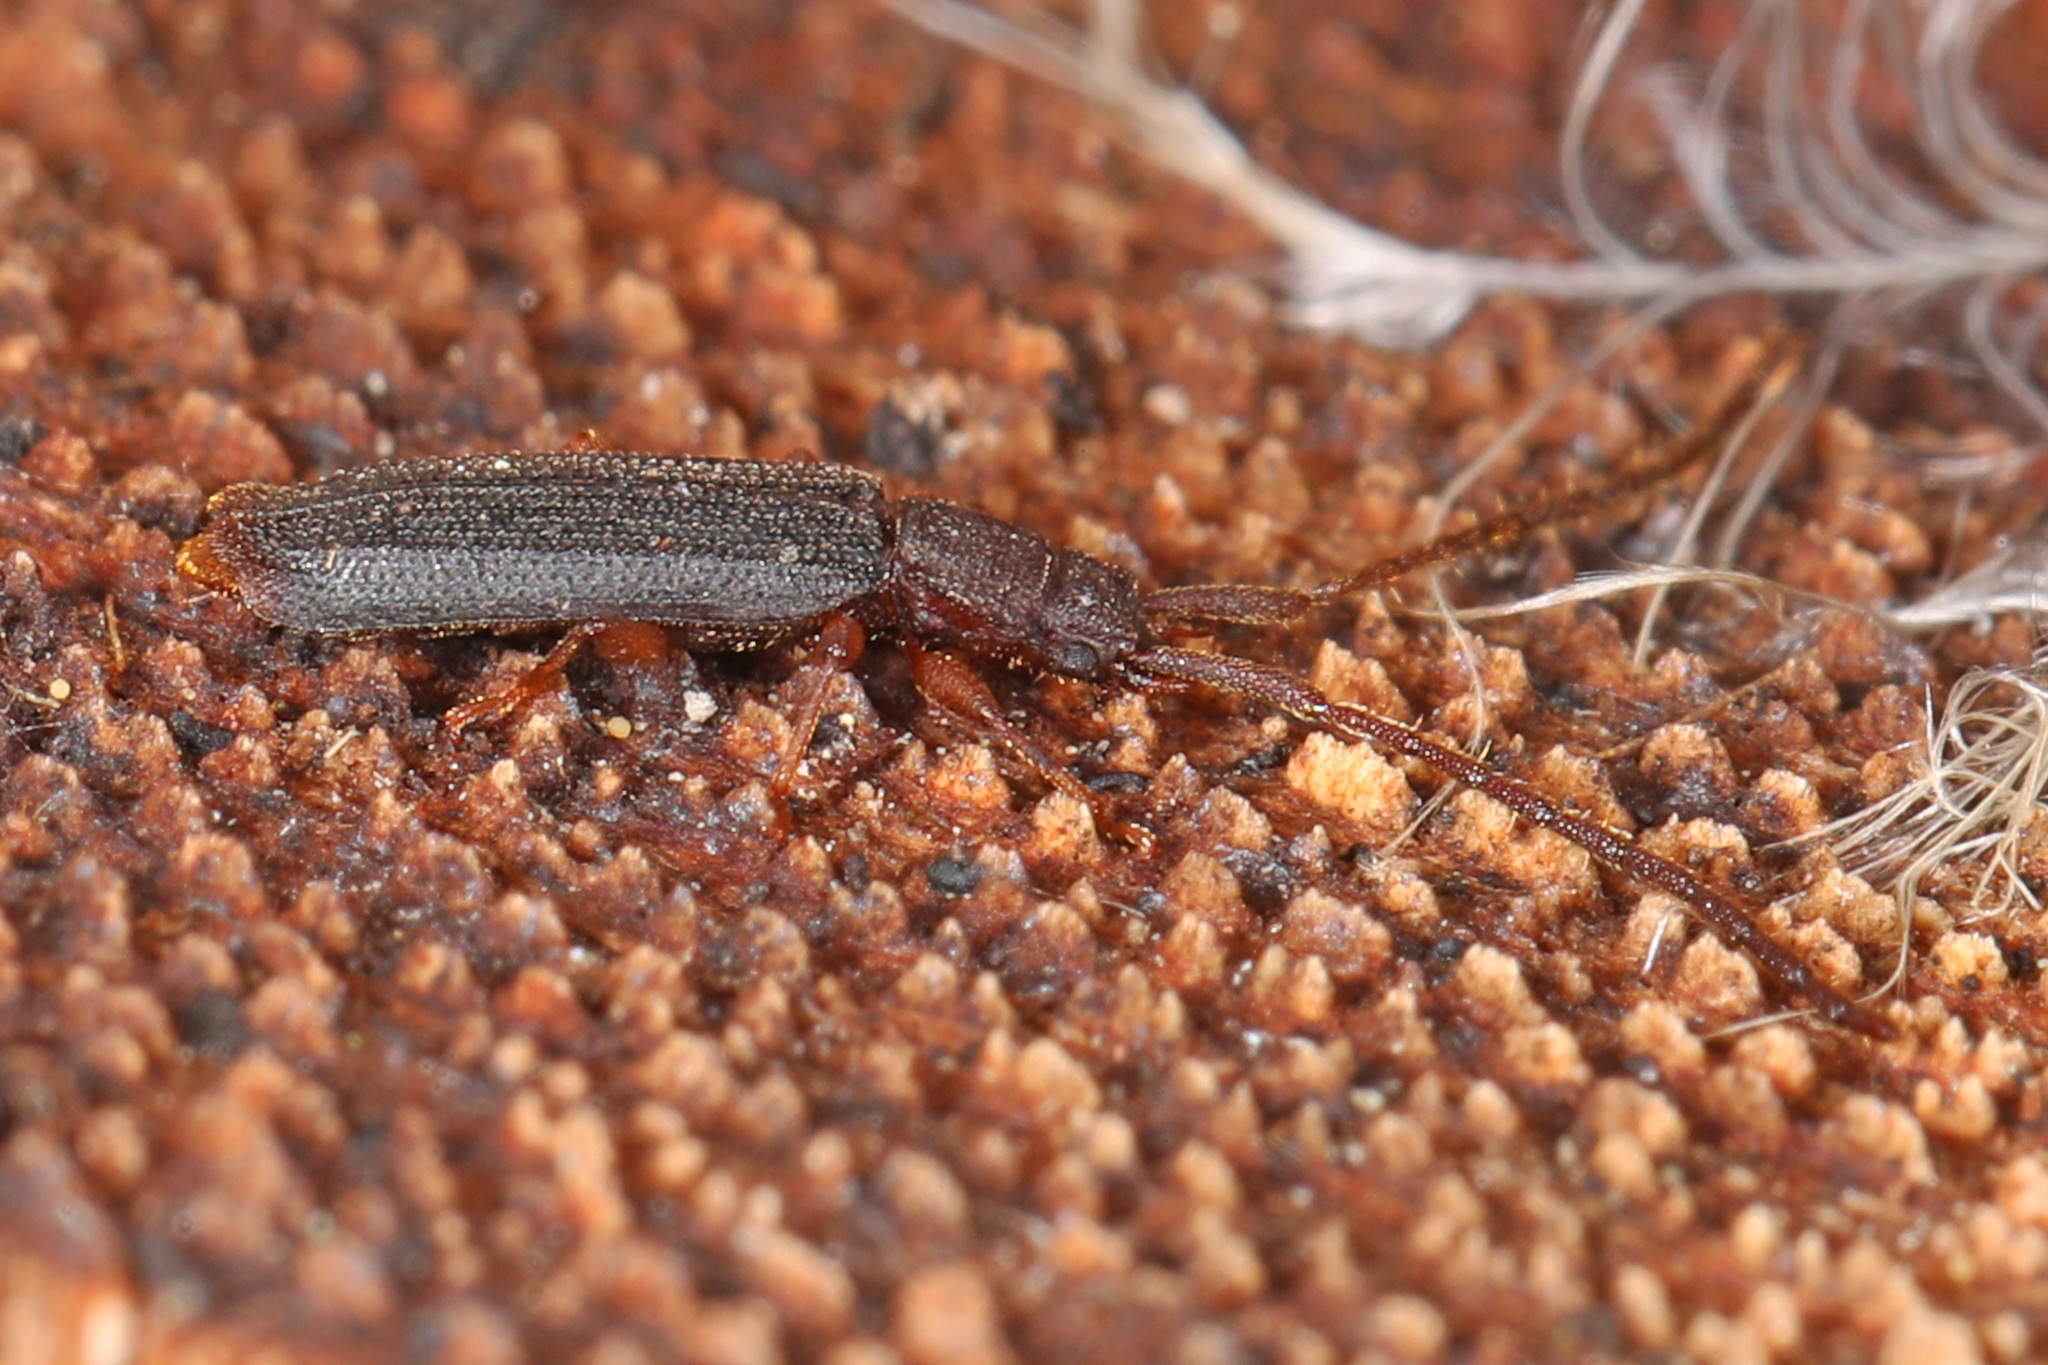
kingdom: Animalia
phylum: Arthropoda
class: Insecta
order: Coleoptera
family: Silvanidae
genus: Uleiota
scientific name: Uleiota dubia
